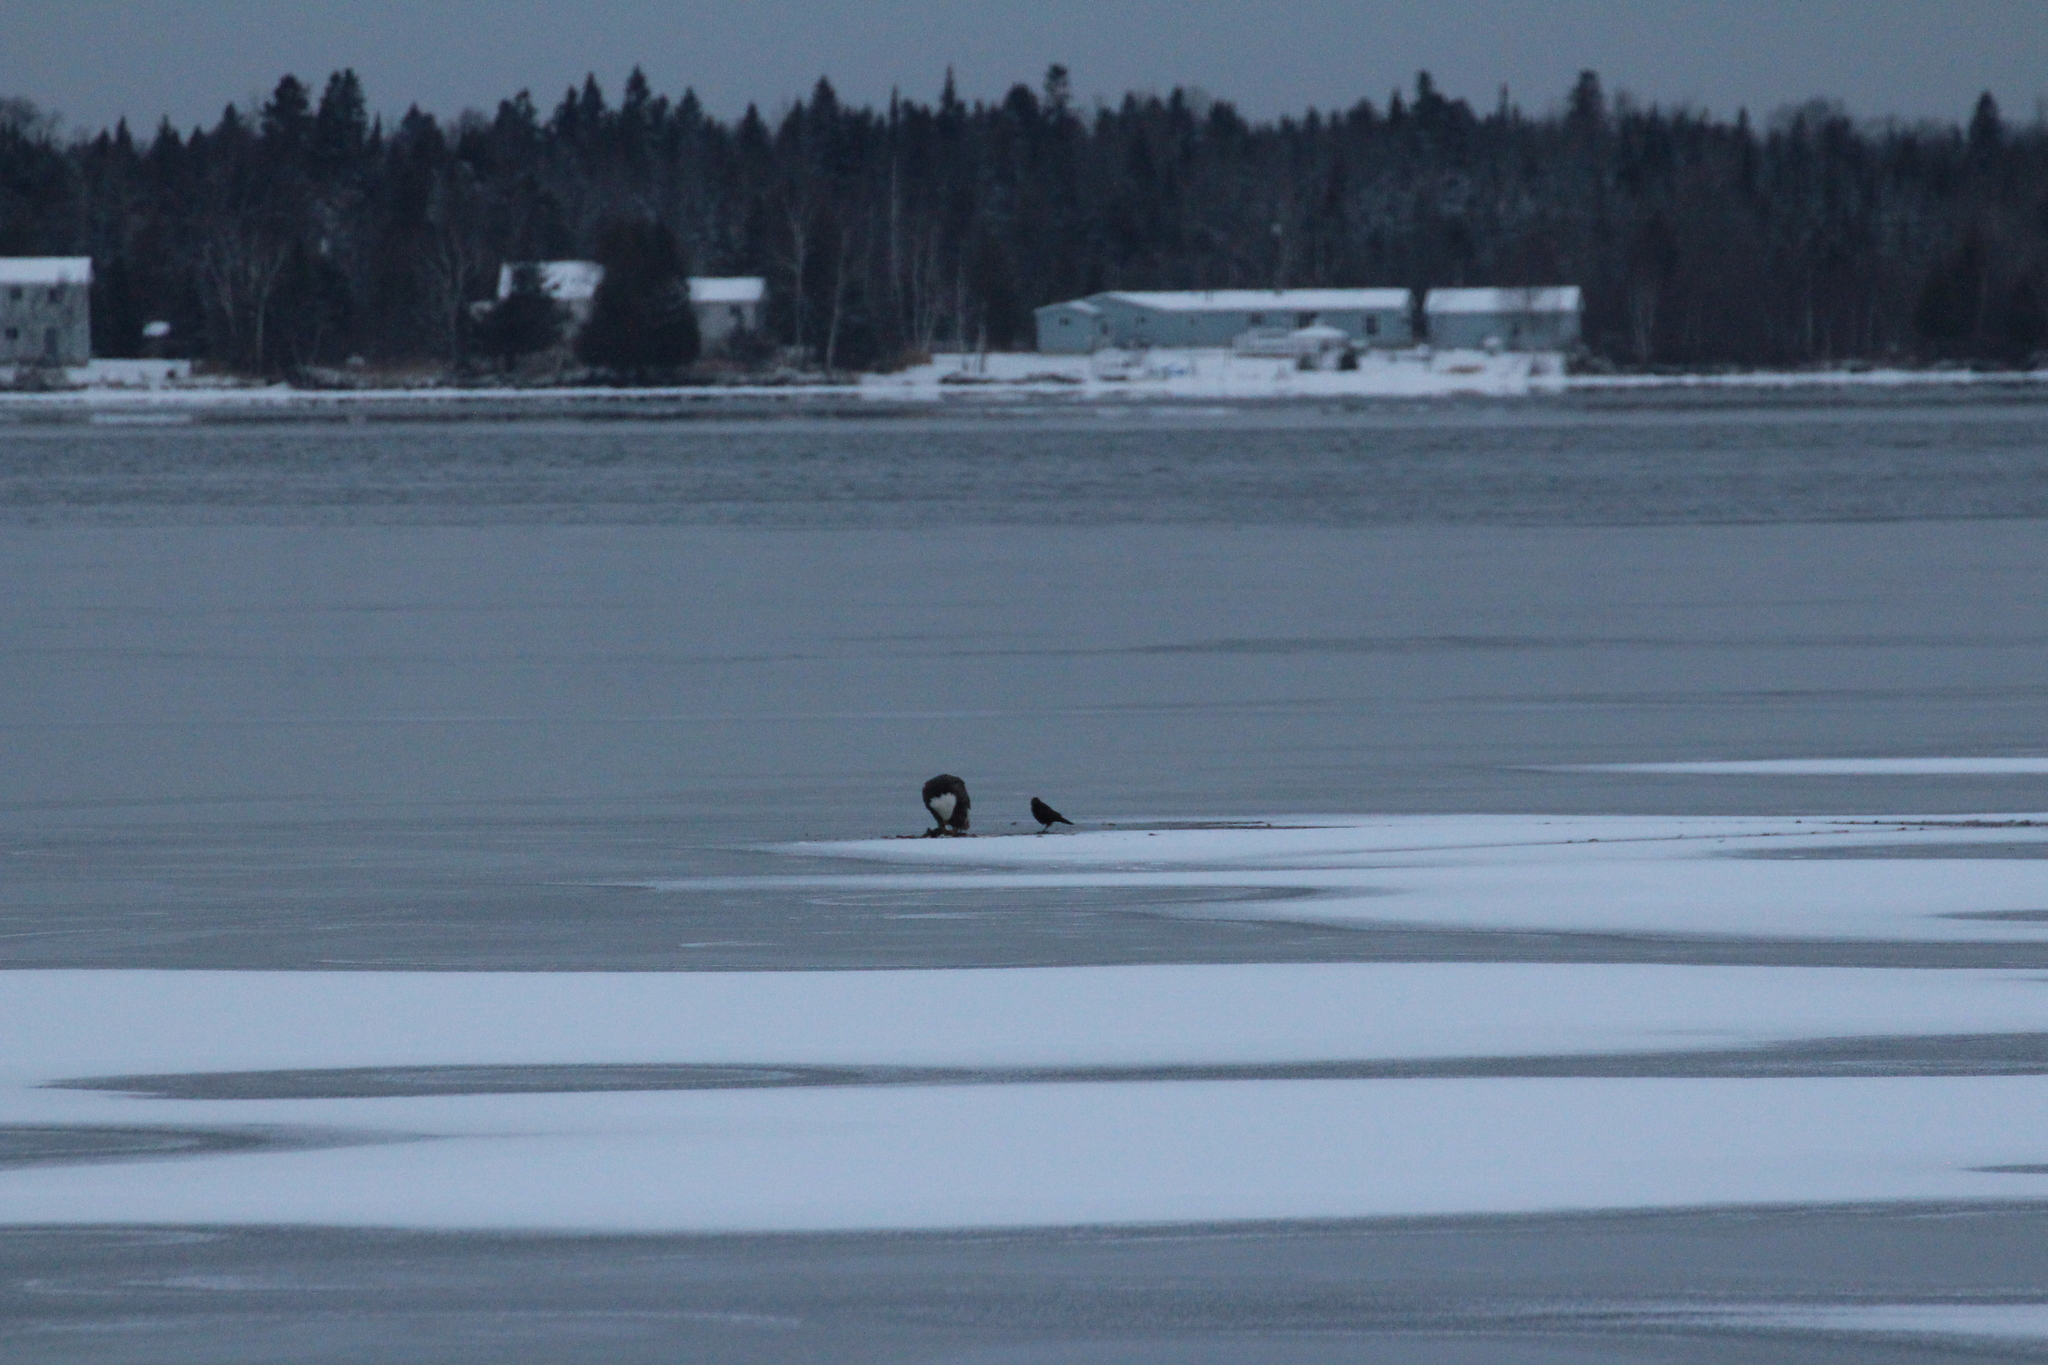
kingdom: Animalia
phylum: Chordata
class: Aves
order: Passeriformes
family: Corvidae
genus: Corvus
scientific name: Corvus brachyrhynchos
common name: American crow
